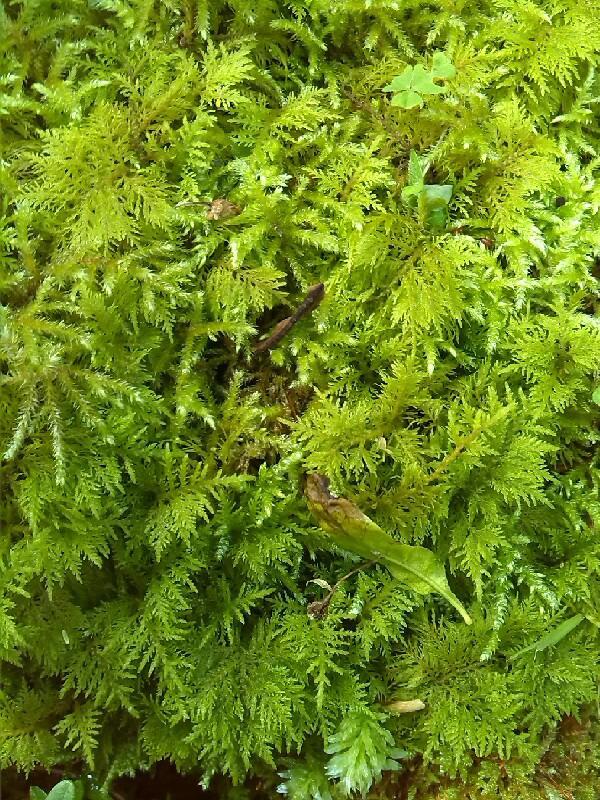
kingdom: Plantae
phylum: Bryophyta
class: Bryopsida
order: Hypnales
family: Thuidiaceae
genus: Thuidium
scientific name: Thuidium tamariscinum
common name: Common tamarisk-moss
